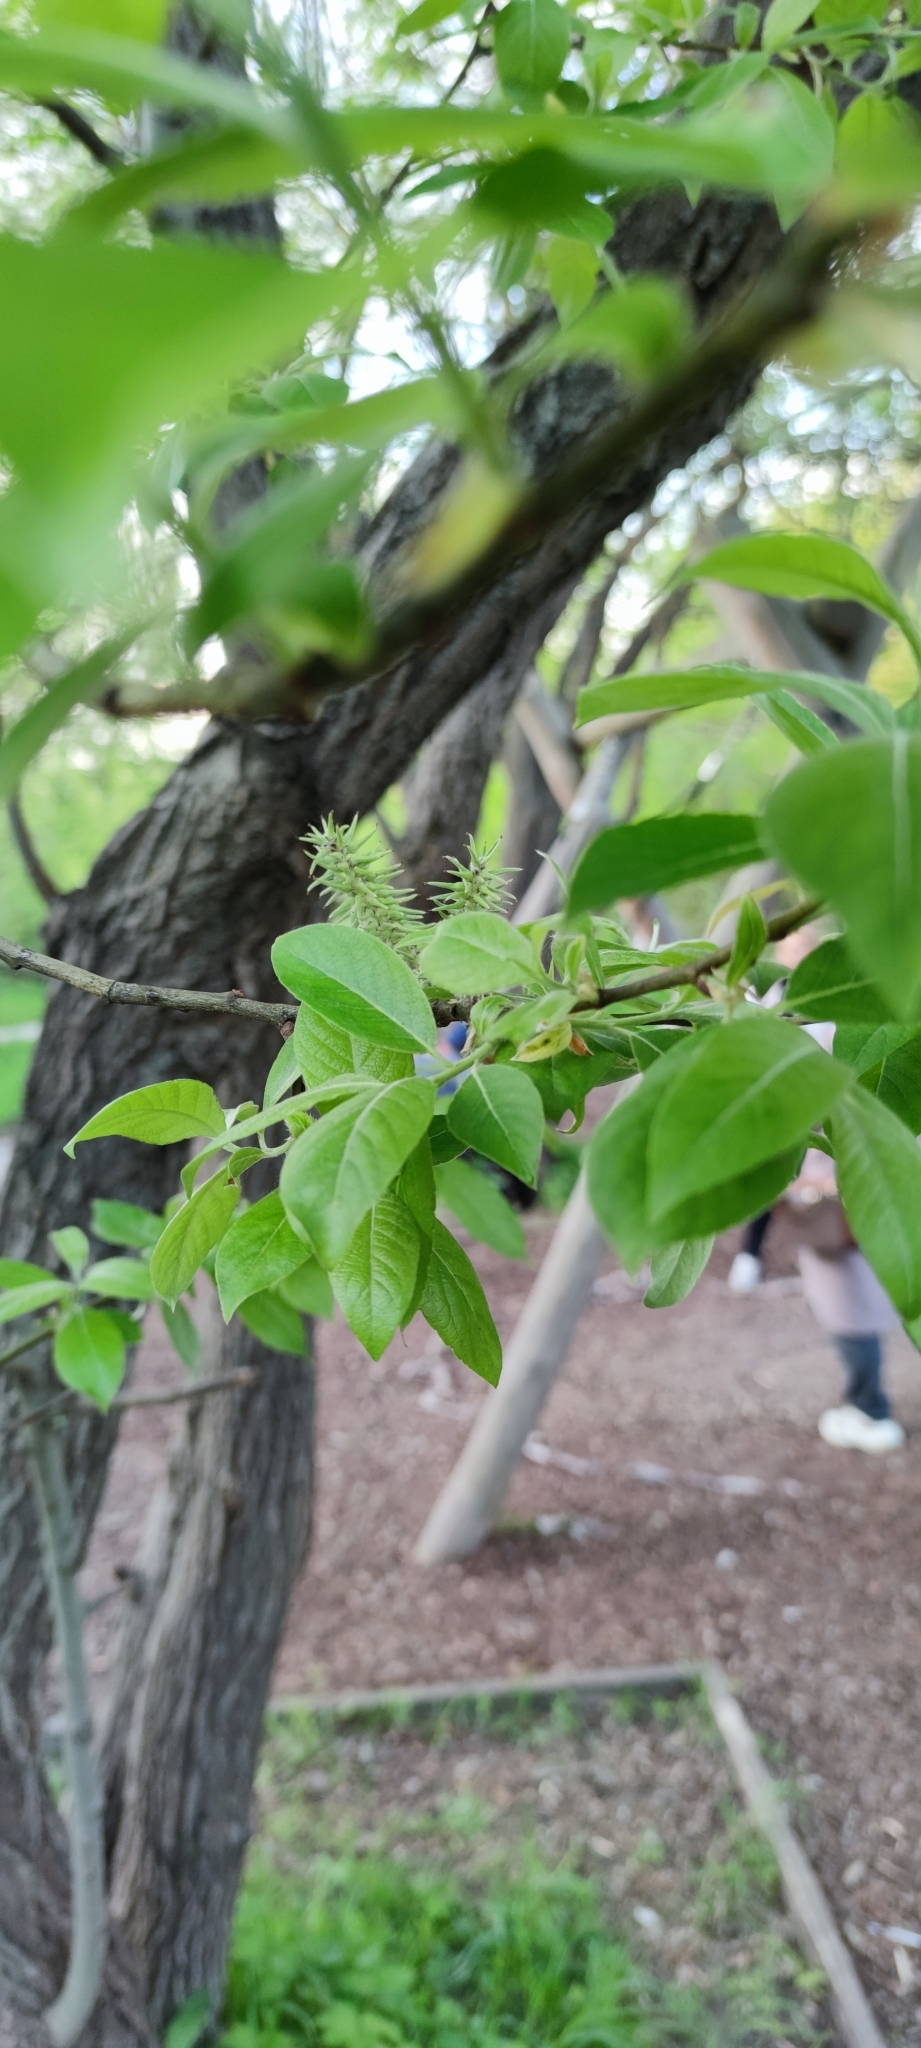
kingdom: Plantae
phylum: Tracheophyta
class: Magnoliopsida
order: Malpighiales
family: Salicaceae
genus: Salix
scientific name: Salix caprea
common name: Goat willow
